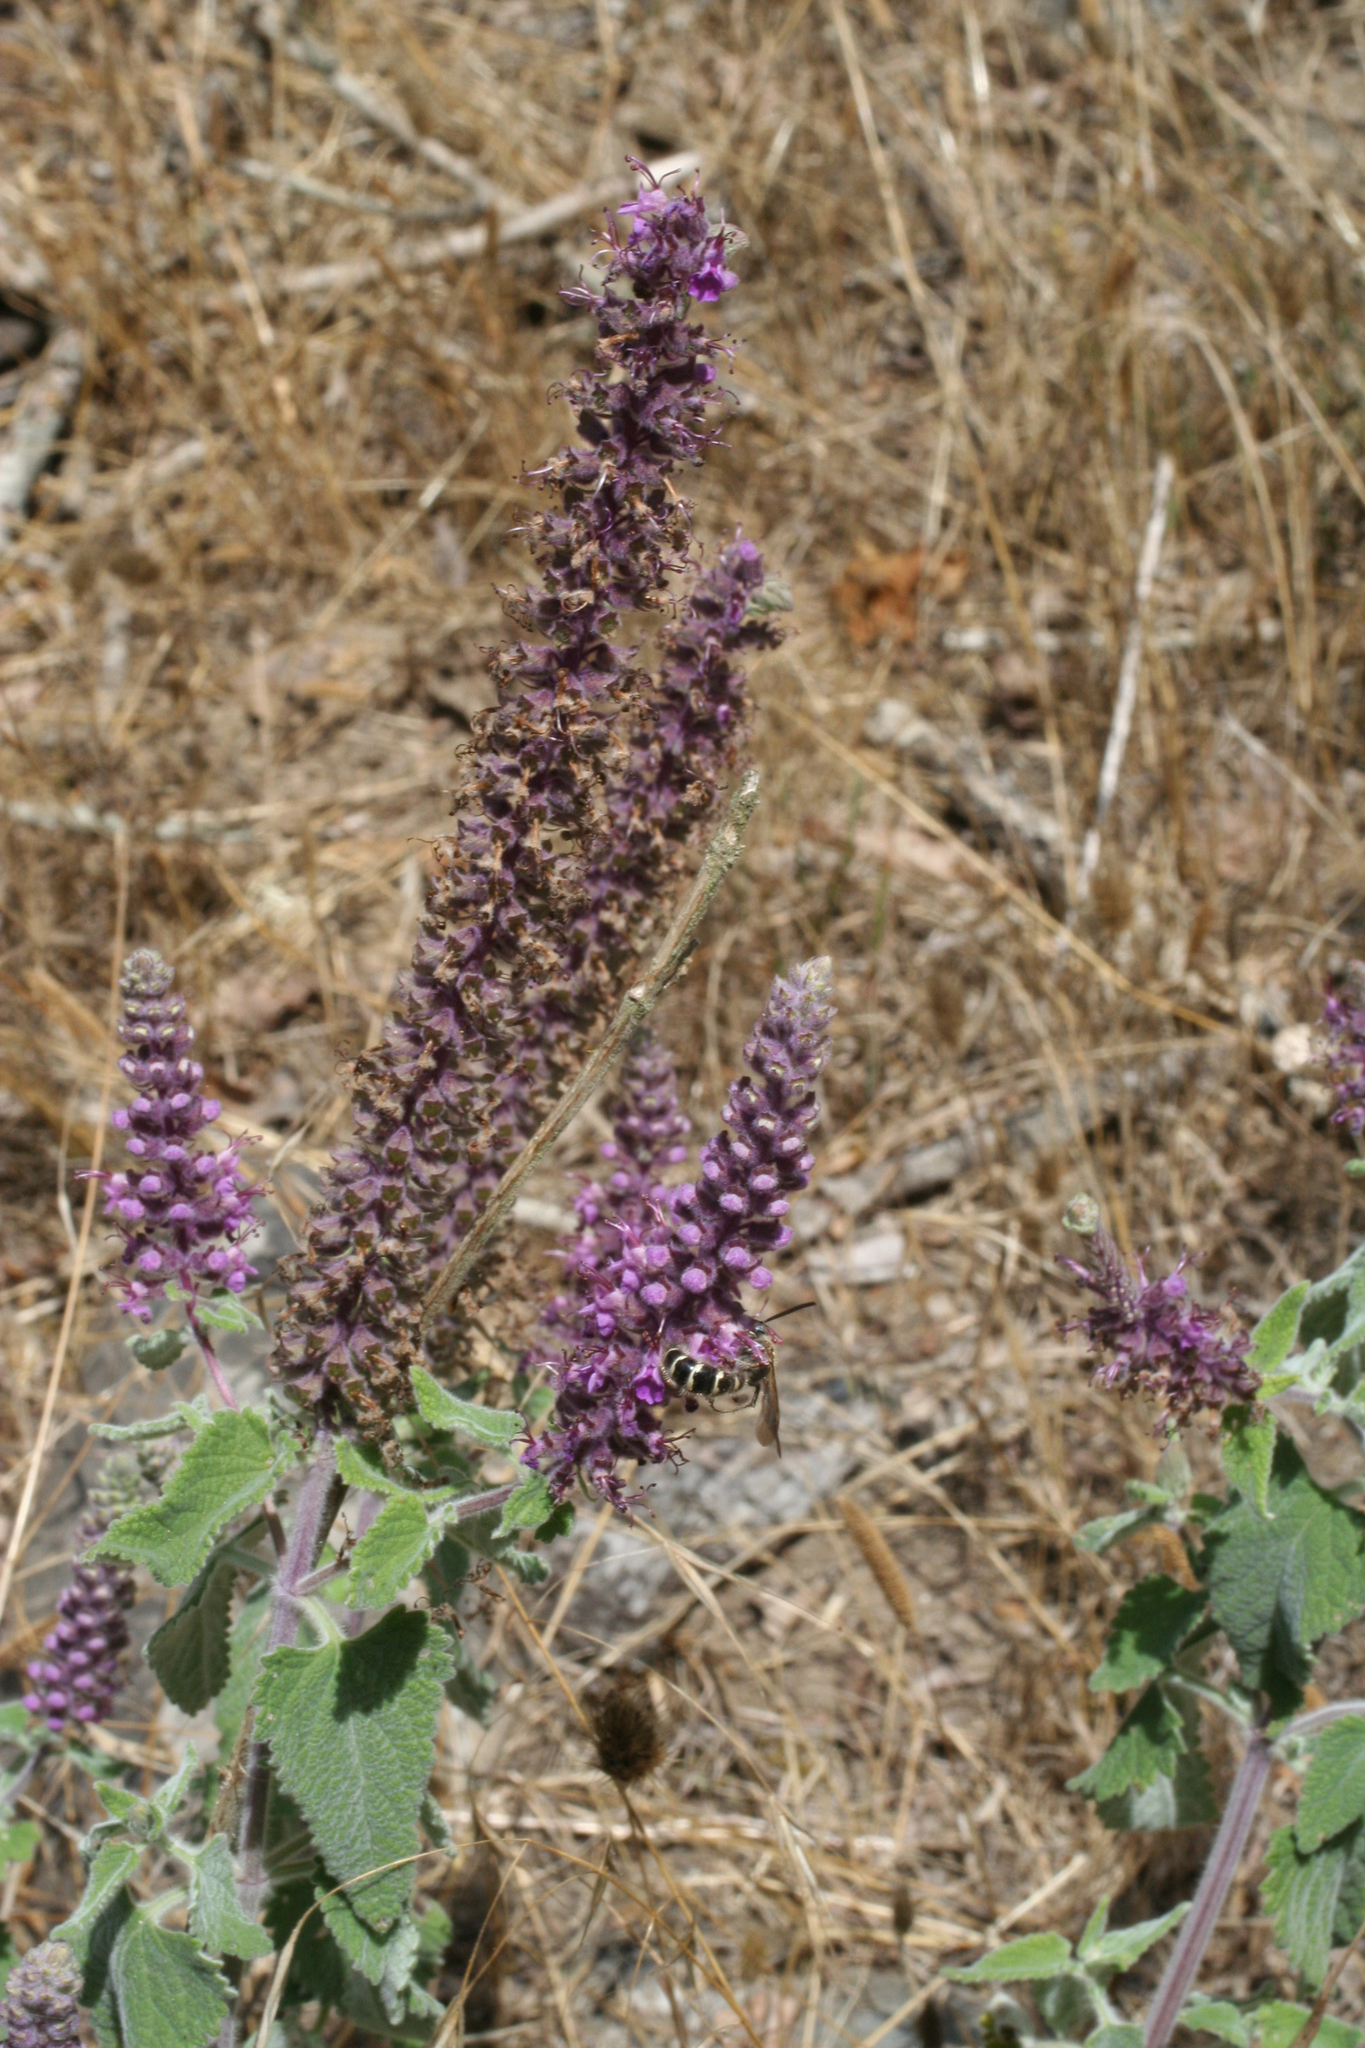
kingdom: Plantae
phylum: Tracheophyta
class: Magnoliopsida
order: Lamiales
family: Lamiaceae
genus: Teucrium
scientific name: Teucrium hircanicum
